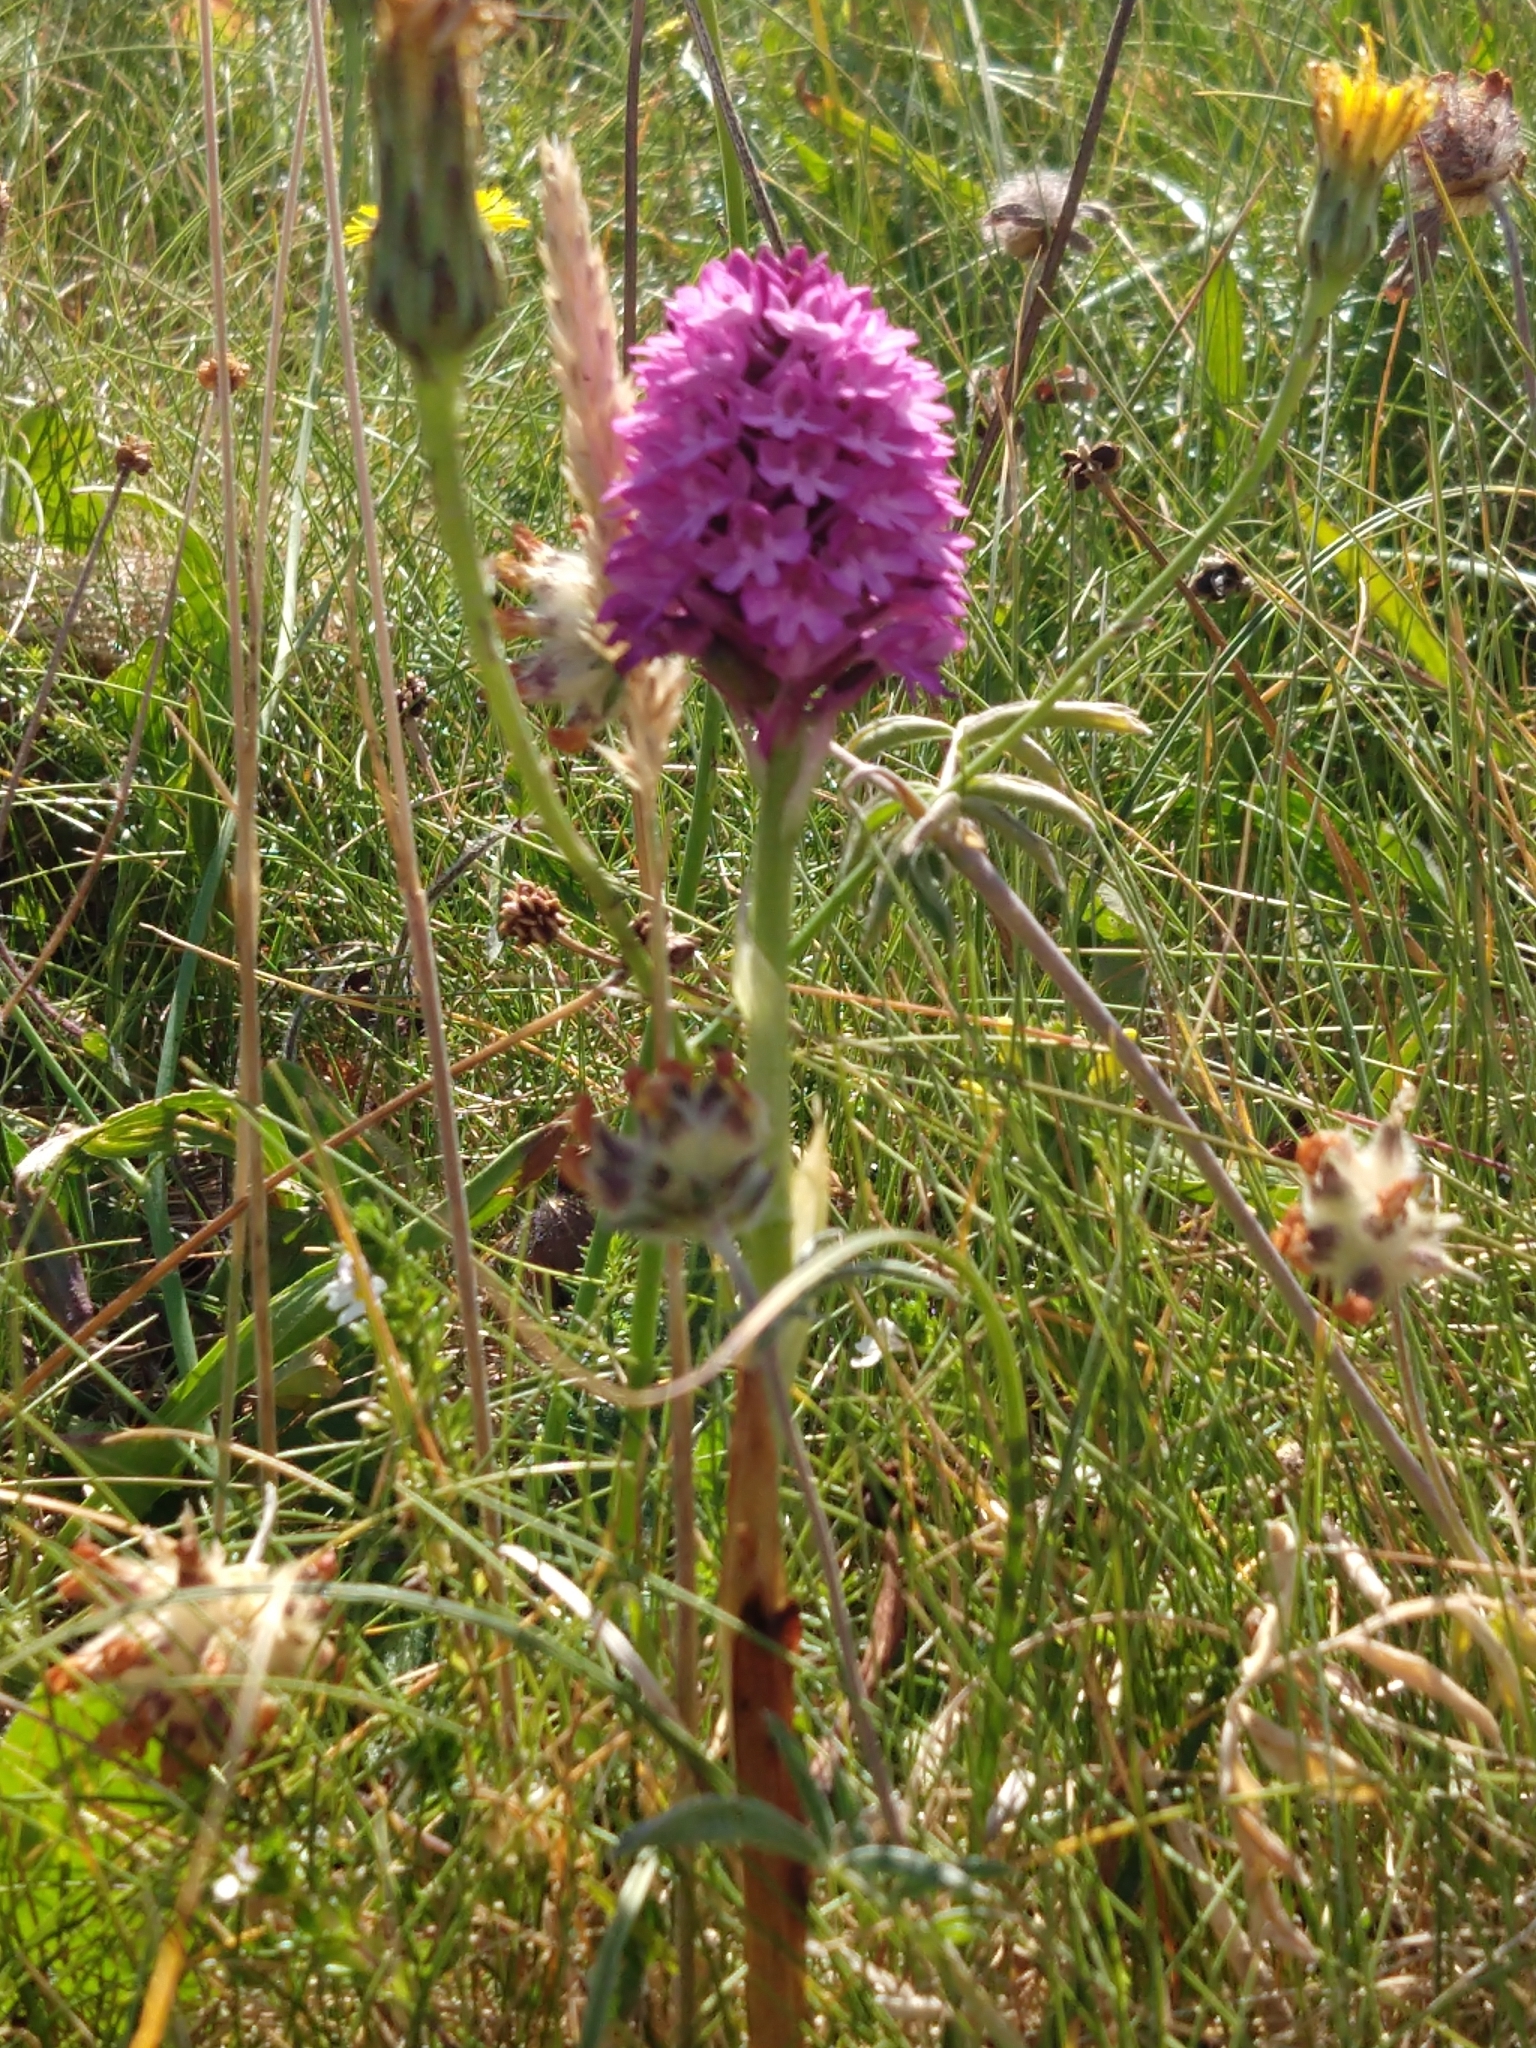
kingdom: Plantae
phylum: Tracheophyta
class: Liliopsida
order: Asparagales
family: Orchidaceae
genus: Anacamptis
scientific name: Anacamptis pyramidalis
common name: Pyramidal orchid
